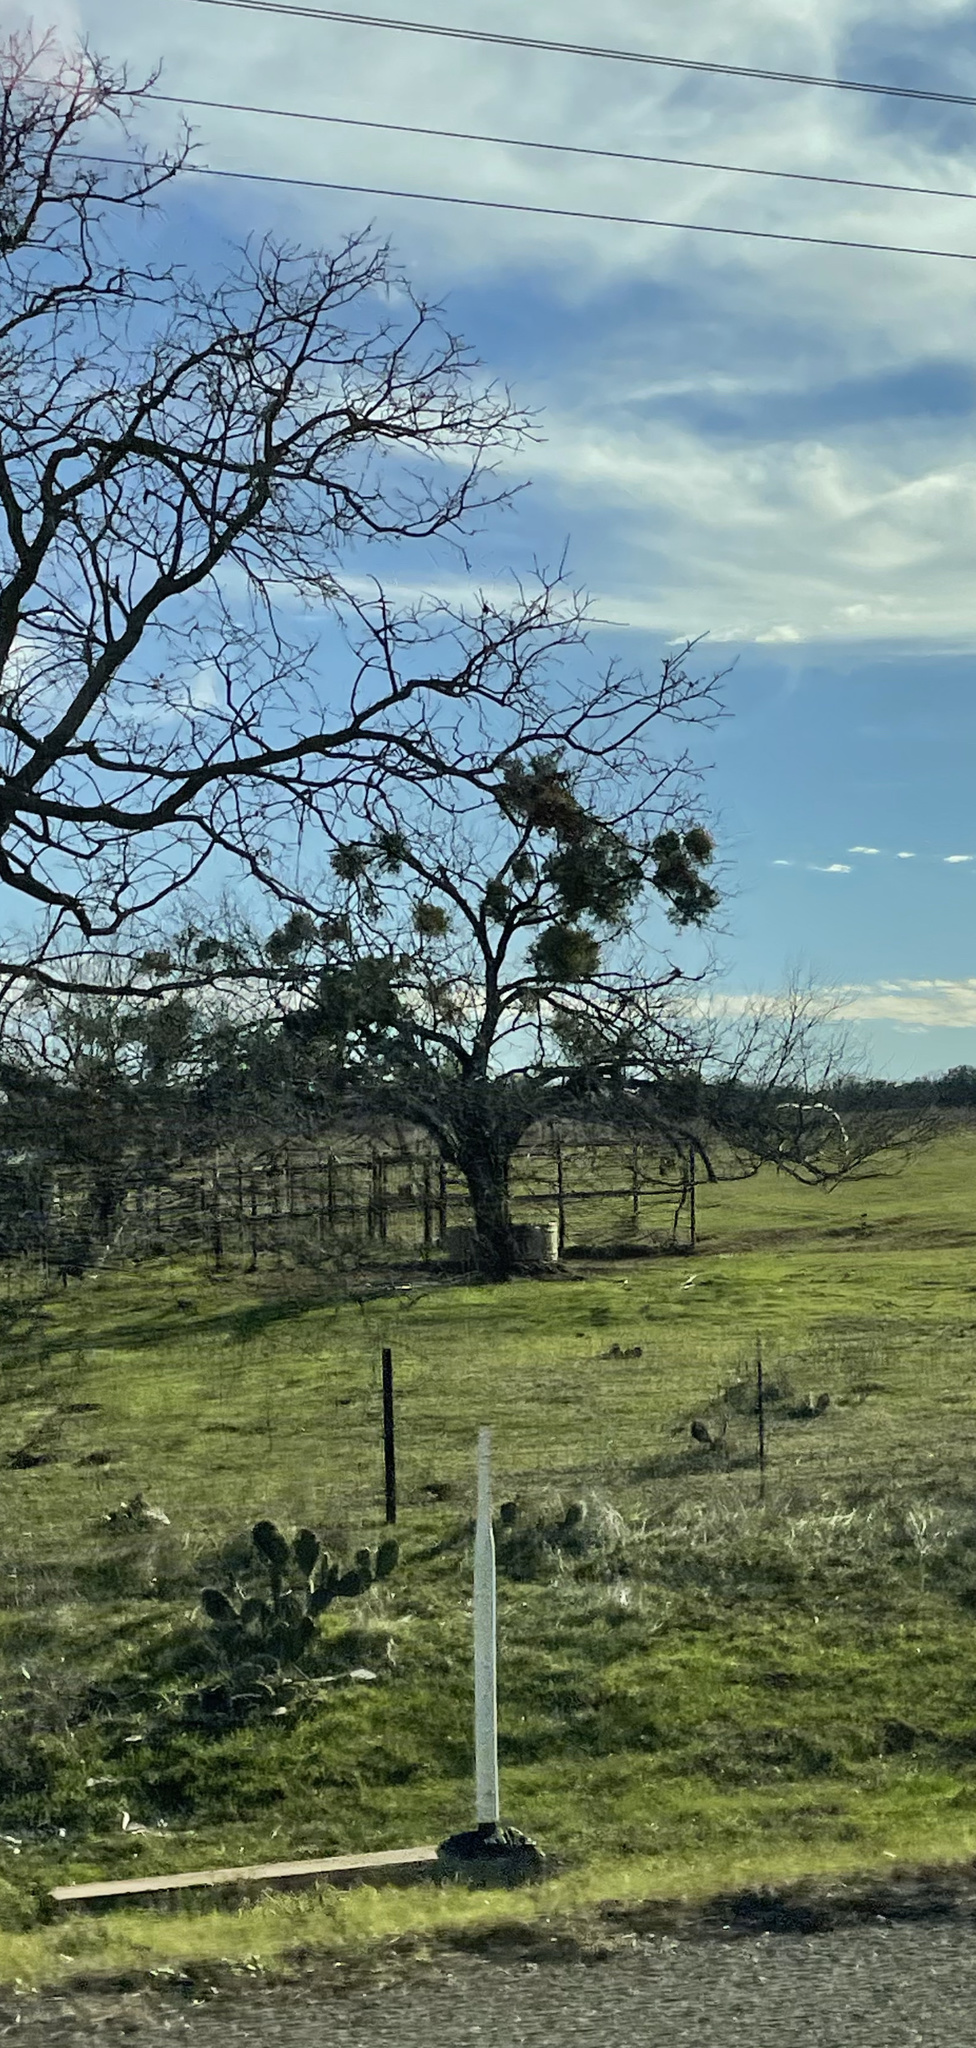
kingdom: Plantae
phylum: Tracheophyta
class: Magnoliopsida
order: Santalales
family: Viscaceae
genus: Phoradendron
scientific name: Phoradendron leucarpum
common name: Pacific mistletoe
